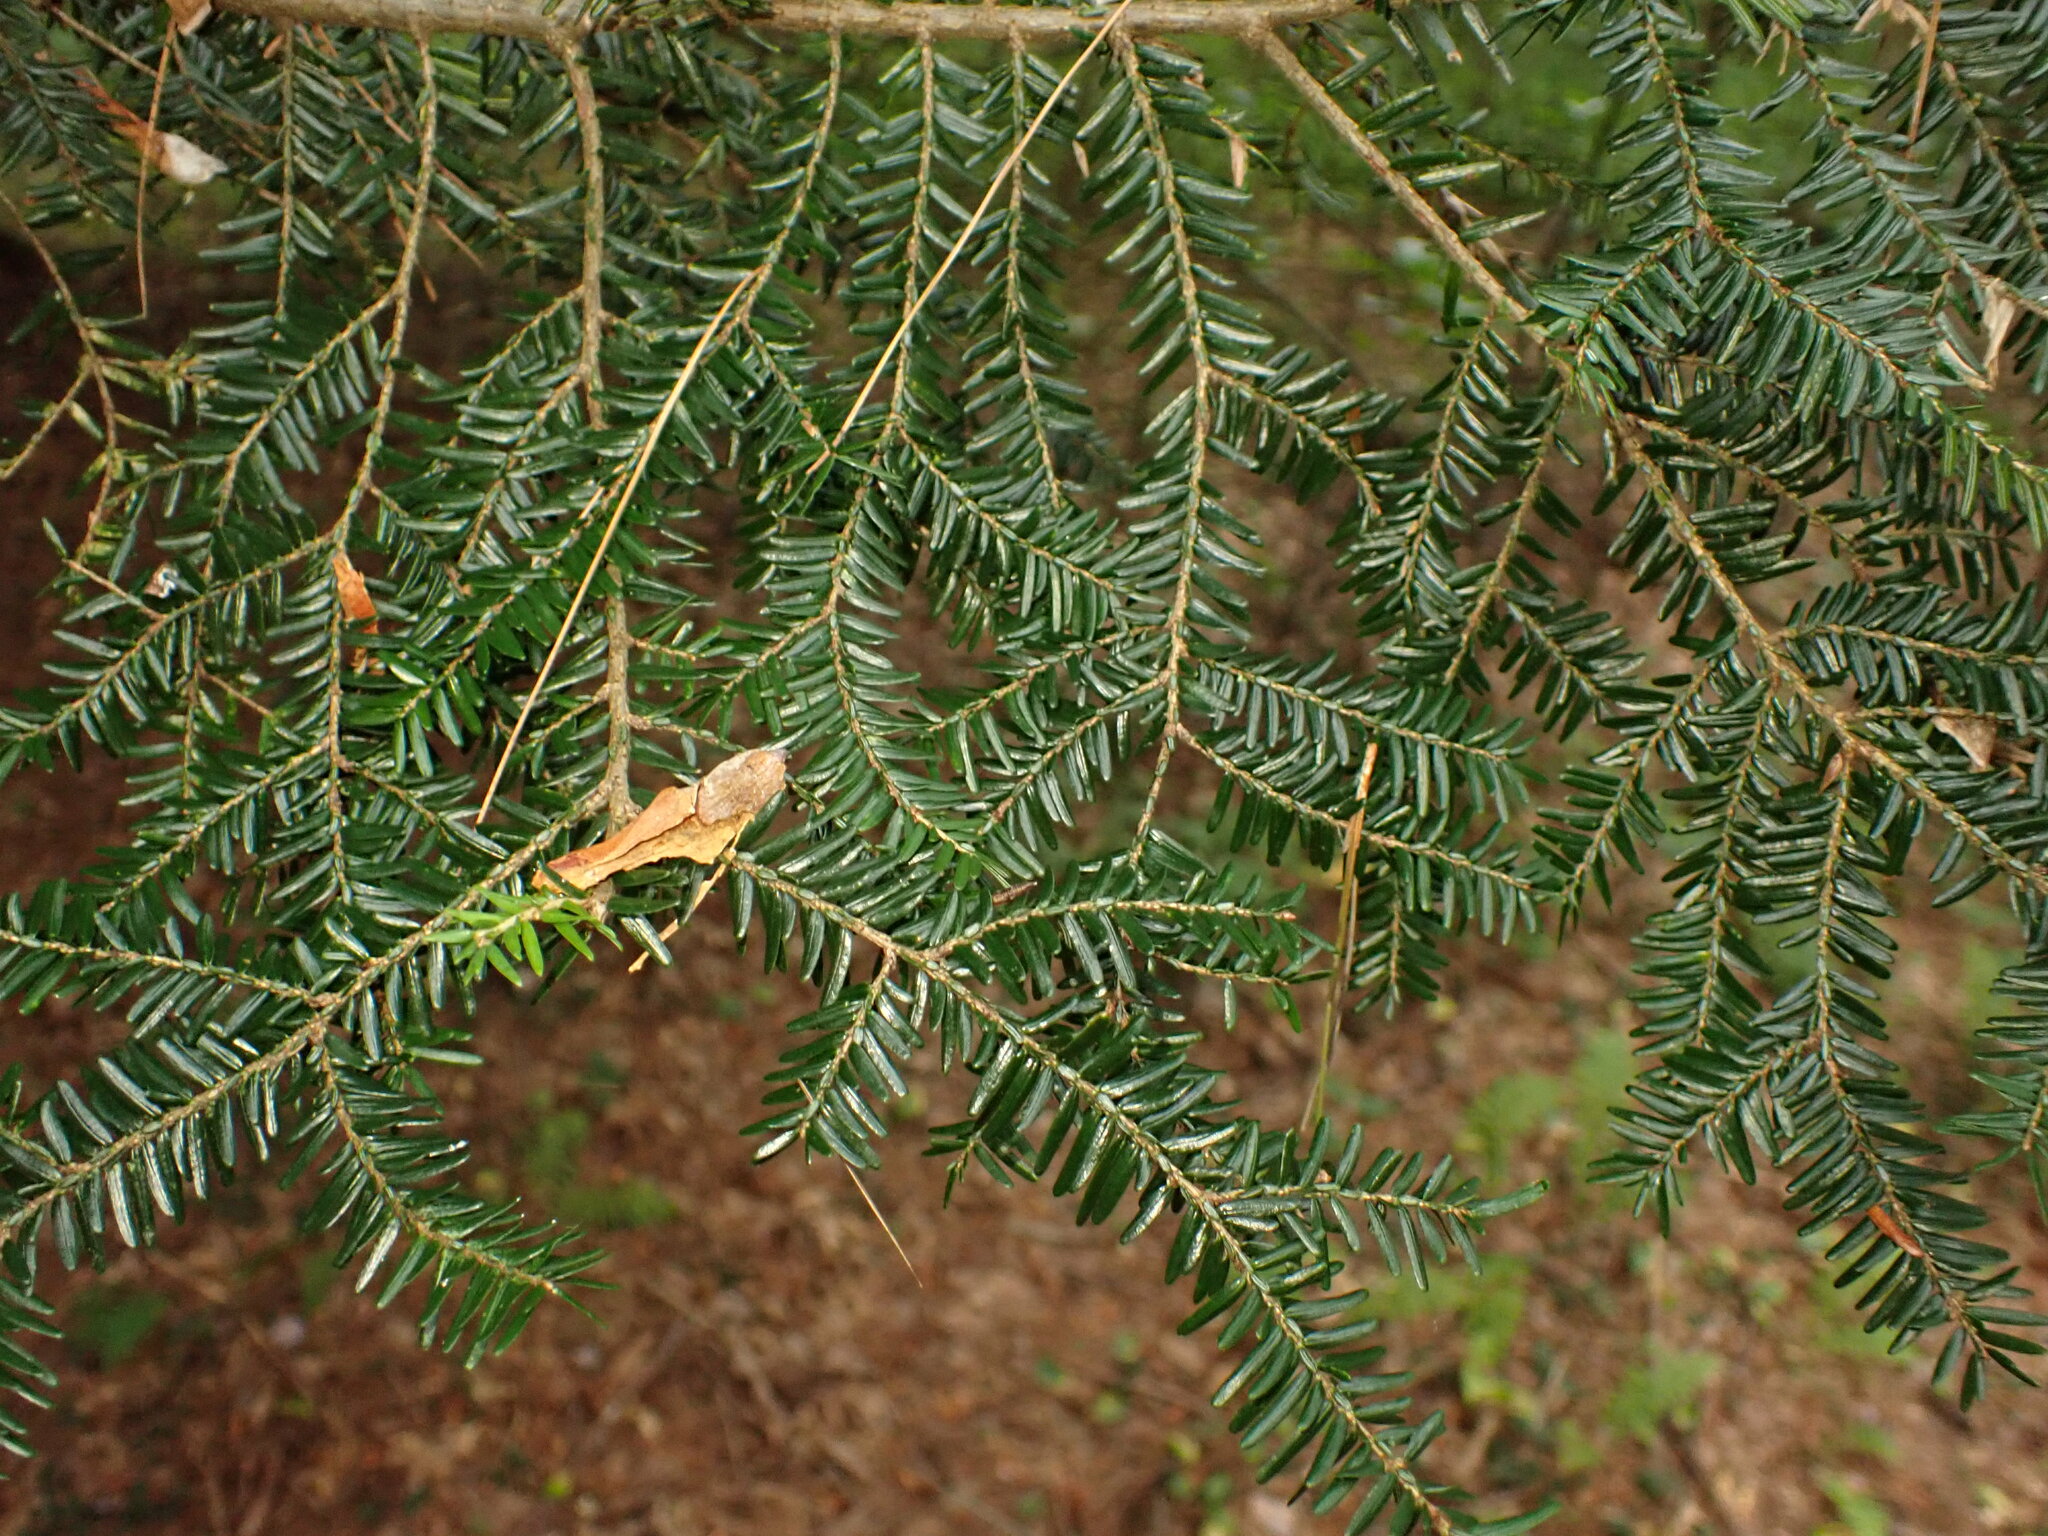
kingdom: Plantae
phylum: Tracheophyta
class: Pinopsida
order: Pinales
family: Pinaceae
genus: Tsuga
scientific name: Tsuga canadensis
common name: Eastern hemlock
